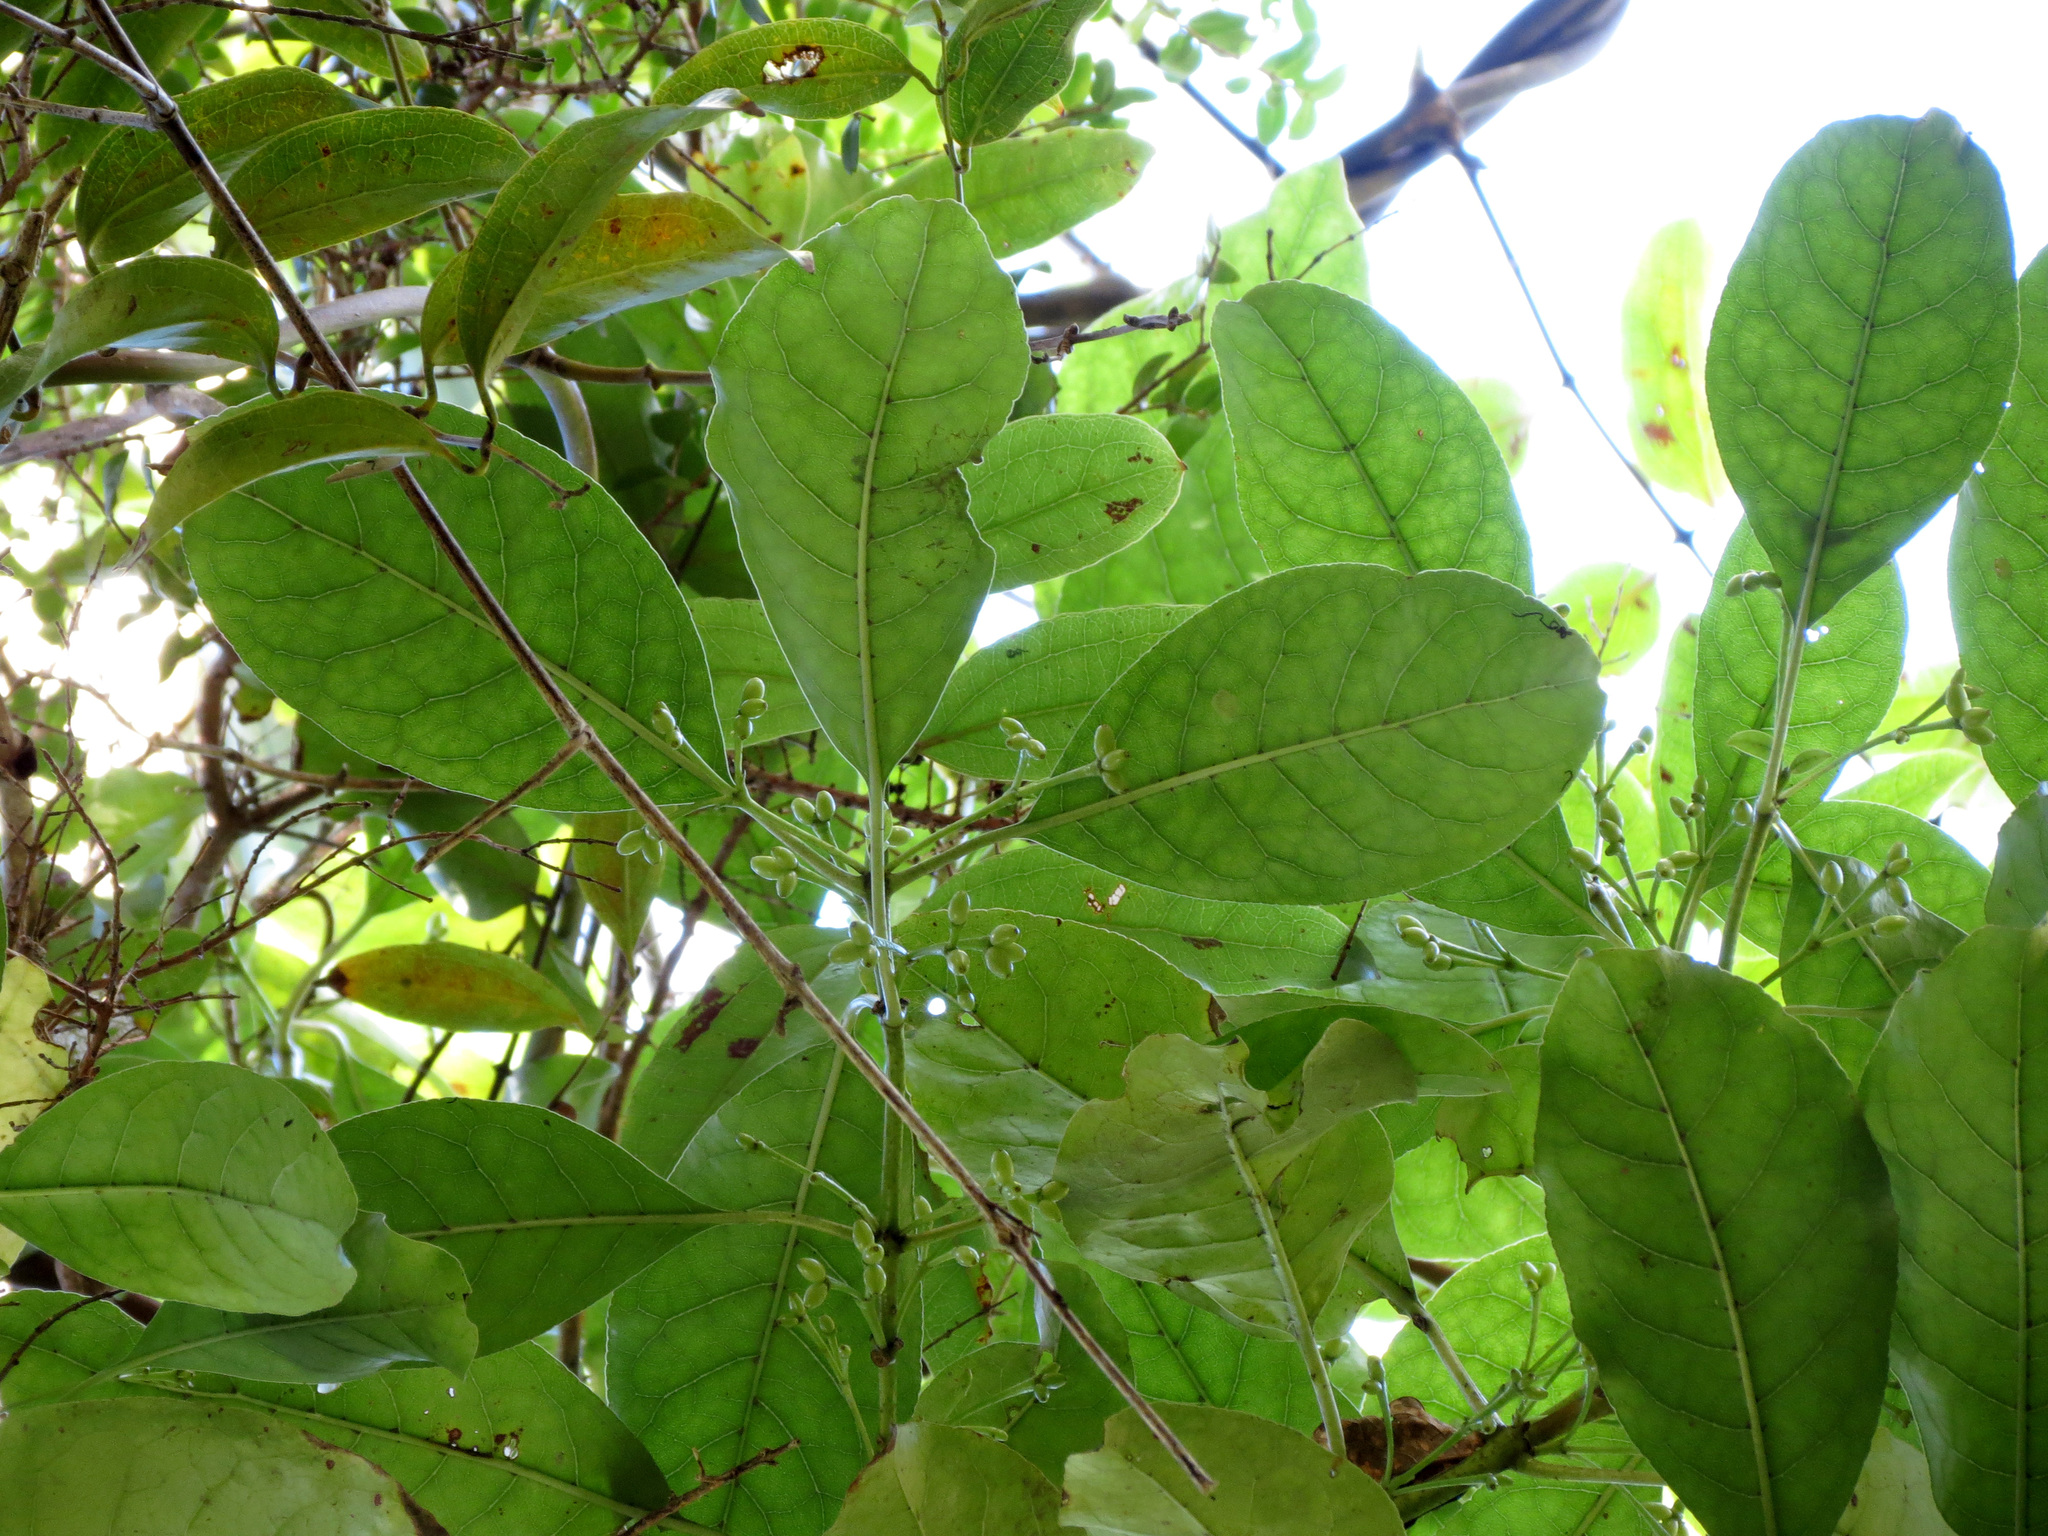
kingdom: Plantae
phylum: Tracheophyta
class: Liliopsida
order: Liliales
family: Ripogonaceae
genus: Ripogonum
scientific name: Ripogonum scandens
